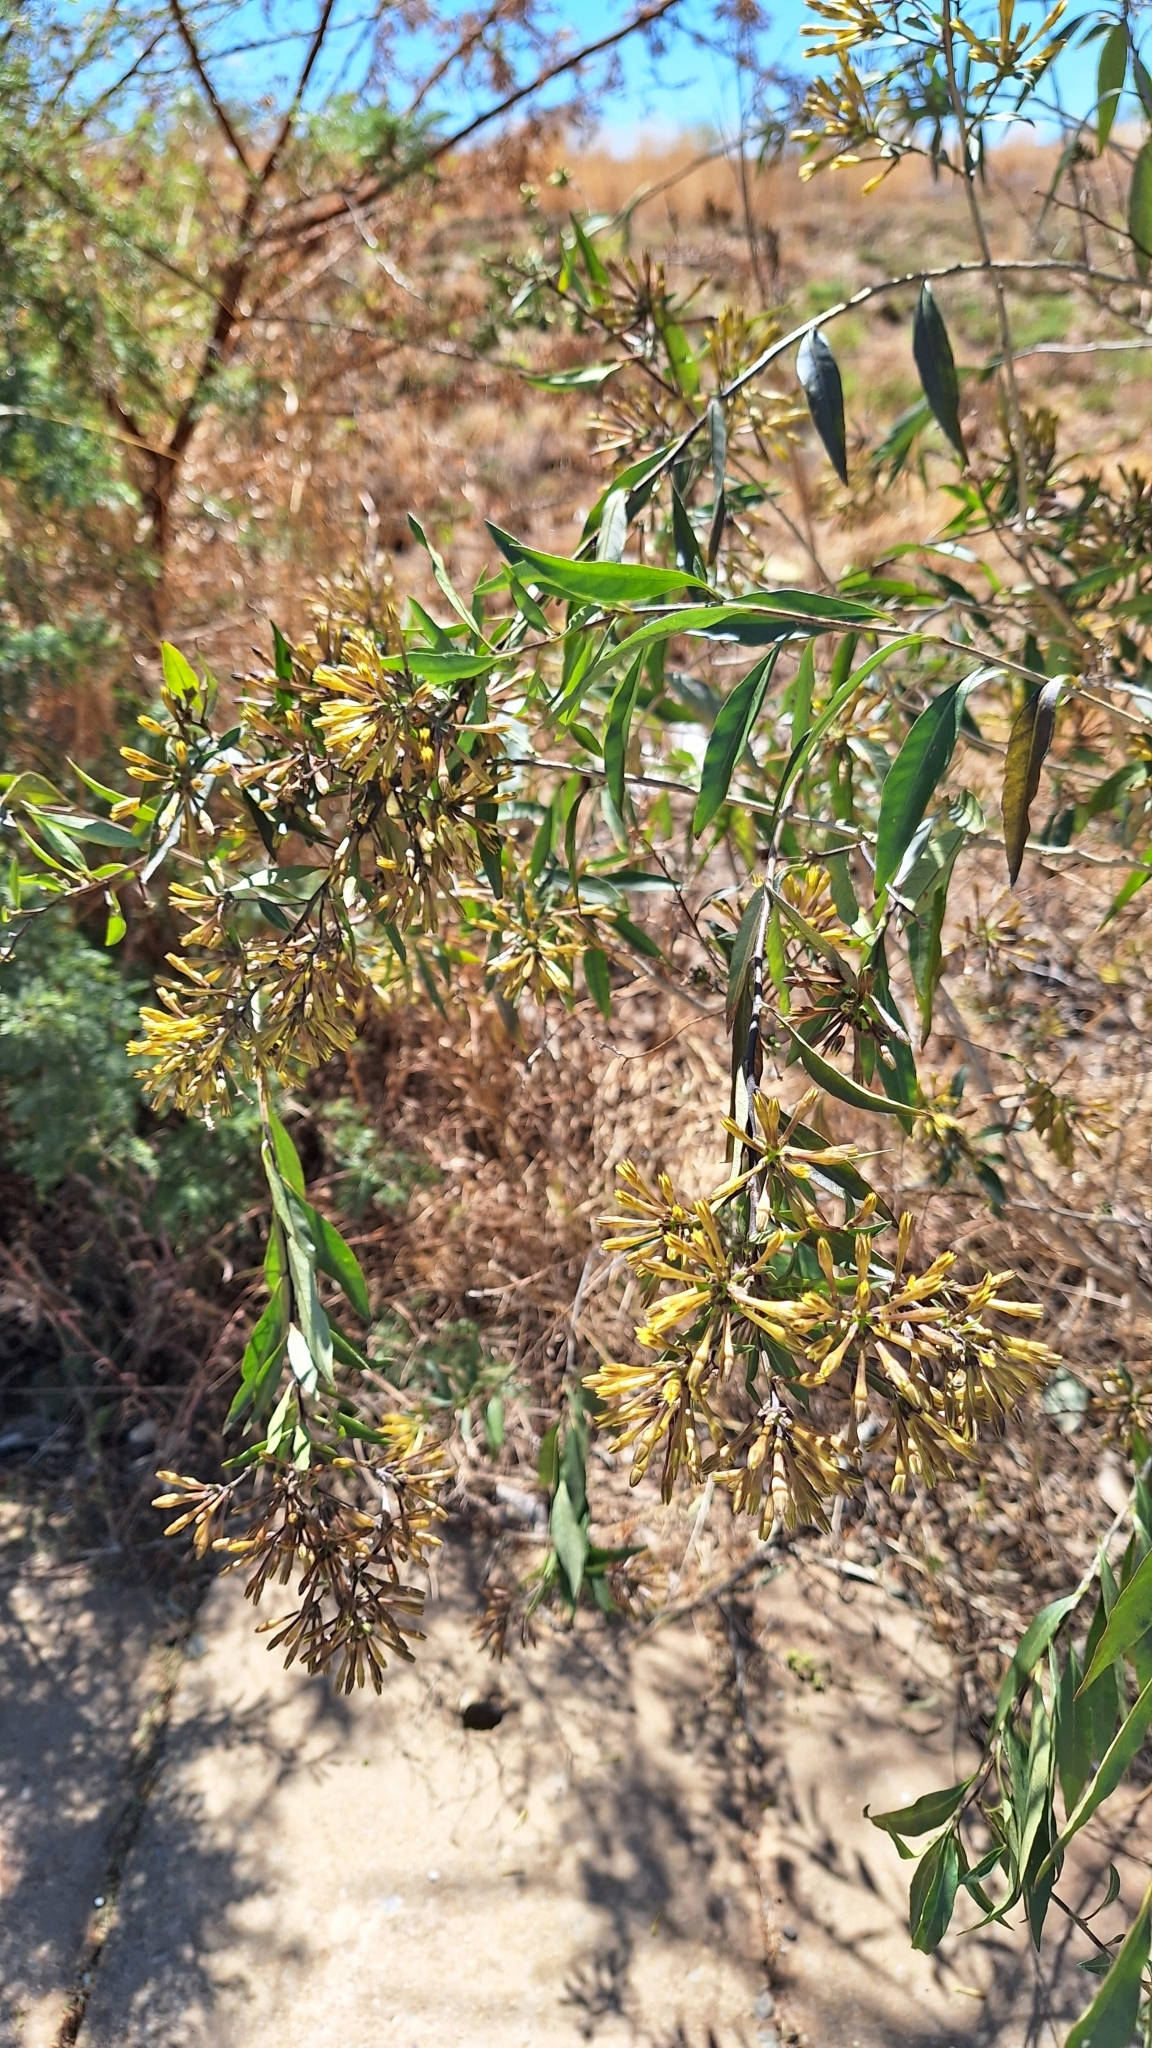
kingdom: Plantae
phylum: Tracheophyta
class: Magnoliopsida
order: Solanales
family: Solanaceae
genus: Nicotiana
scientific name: Nicotiana glauca
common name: Tree tobacco
